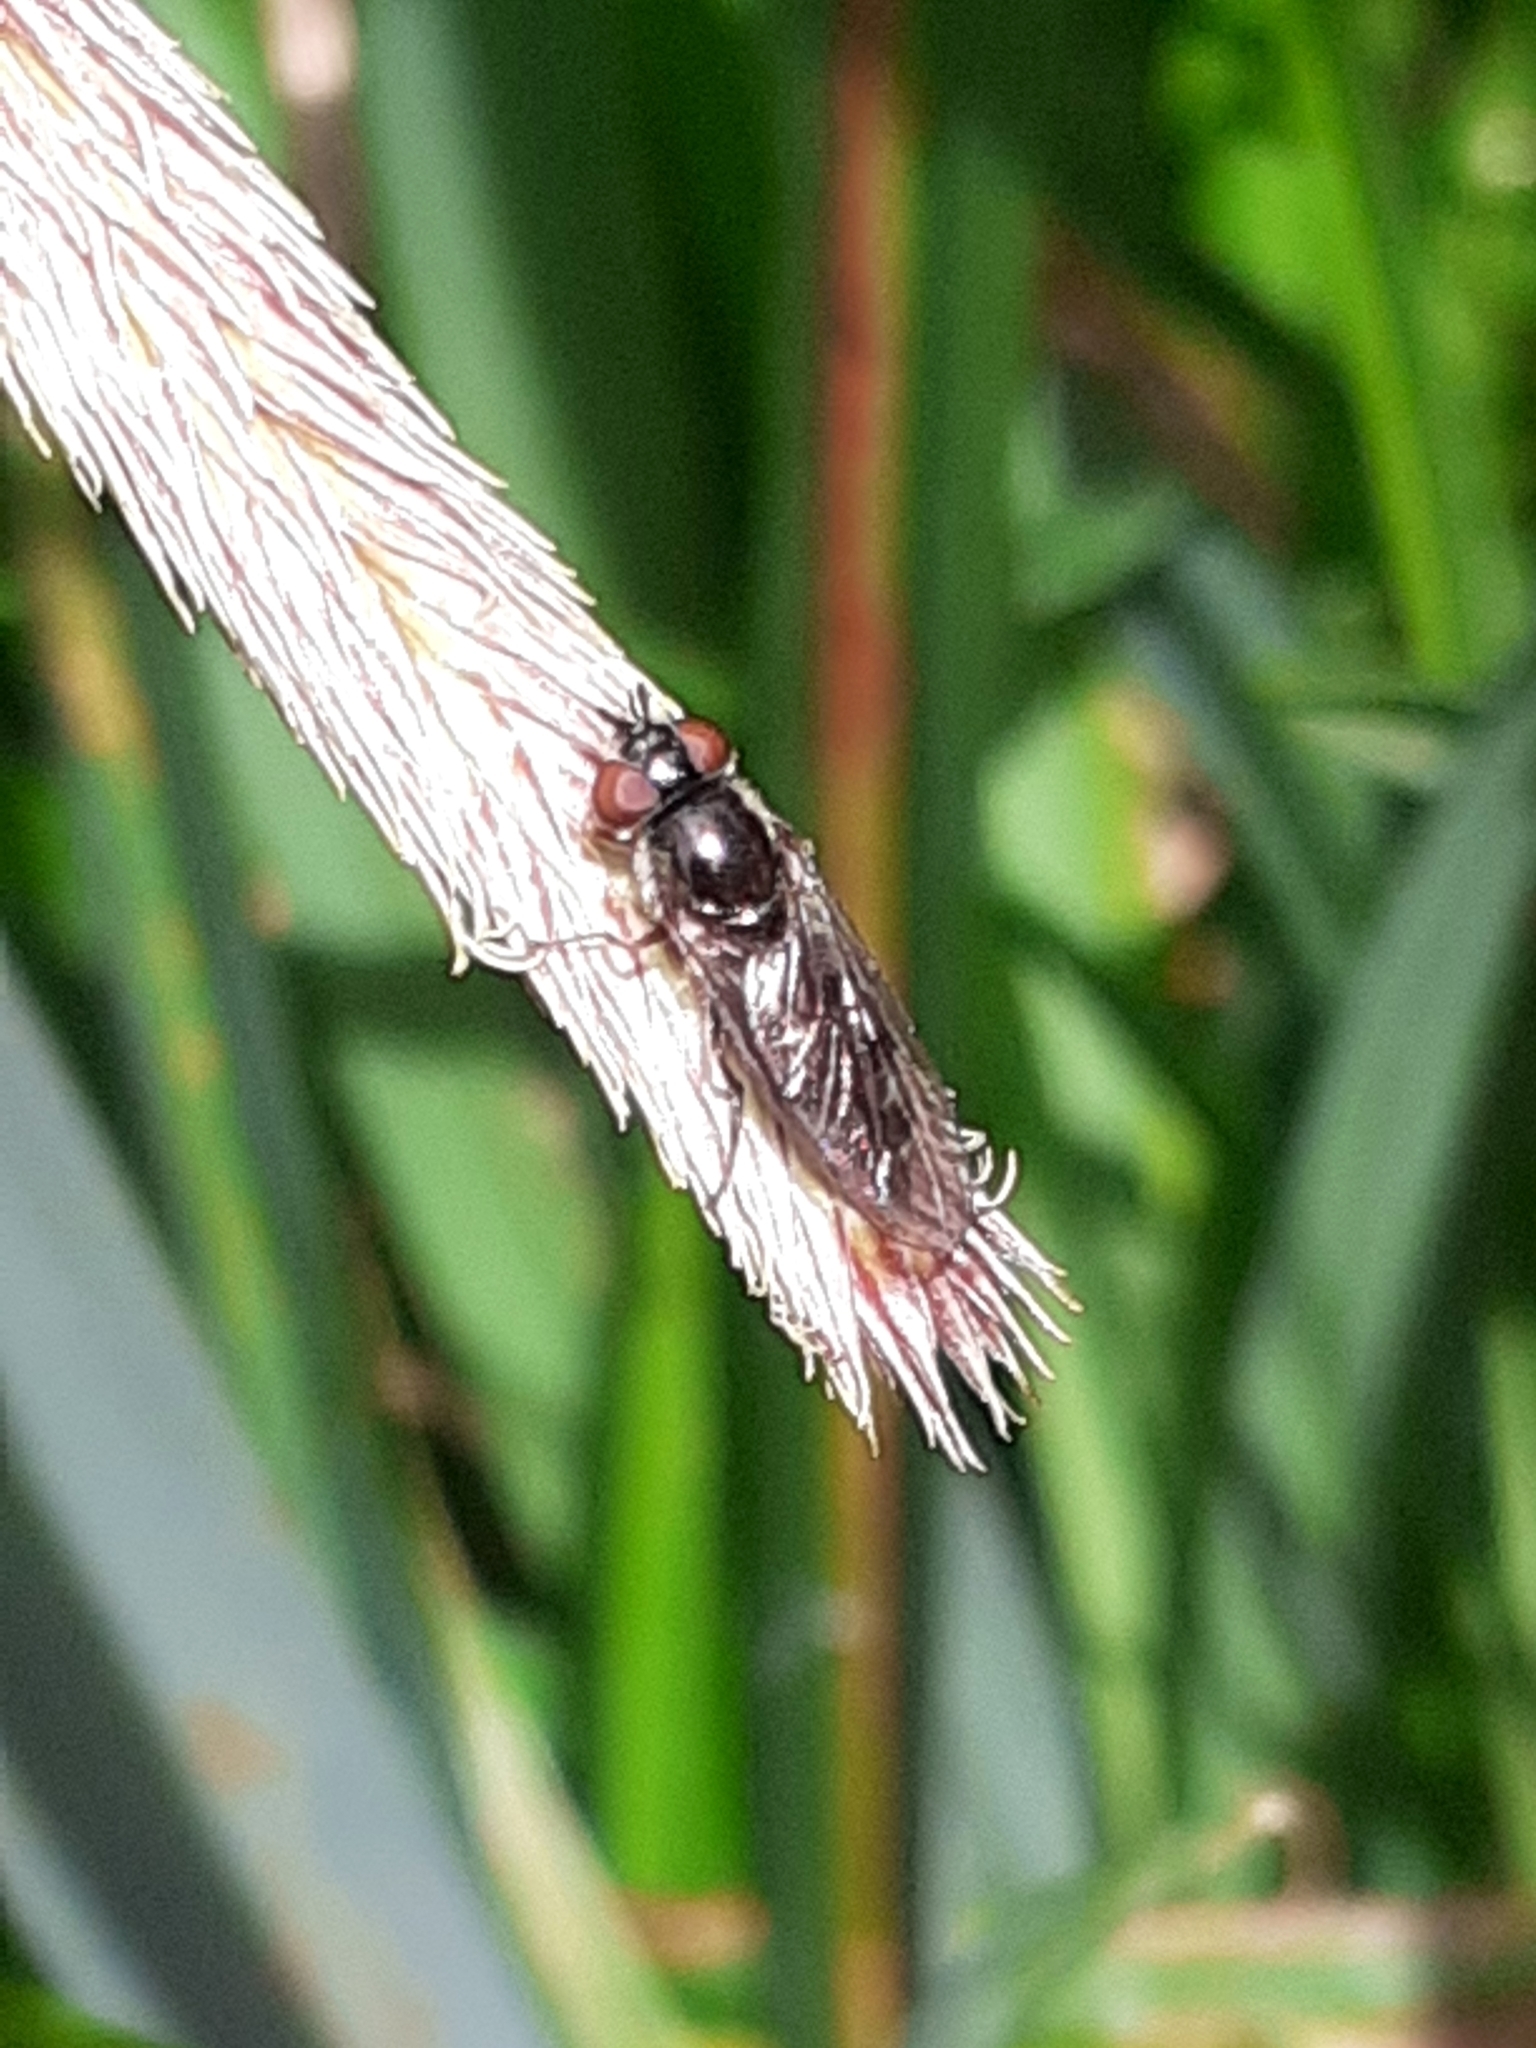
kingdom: Animalia
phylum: Arthropoda
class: Insecta
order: Diptera
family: Syrphidae
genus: Platycheirus
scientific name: Platycheirus albimanus
